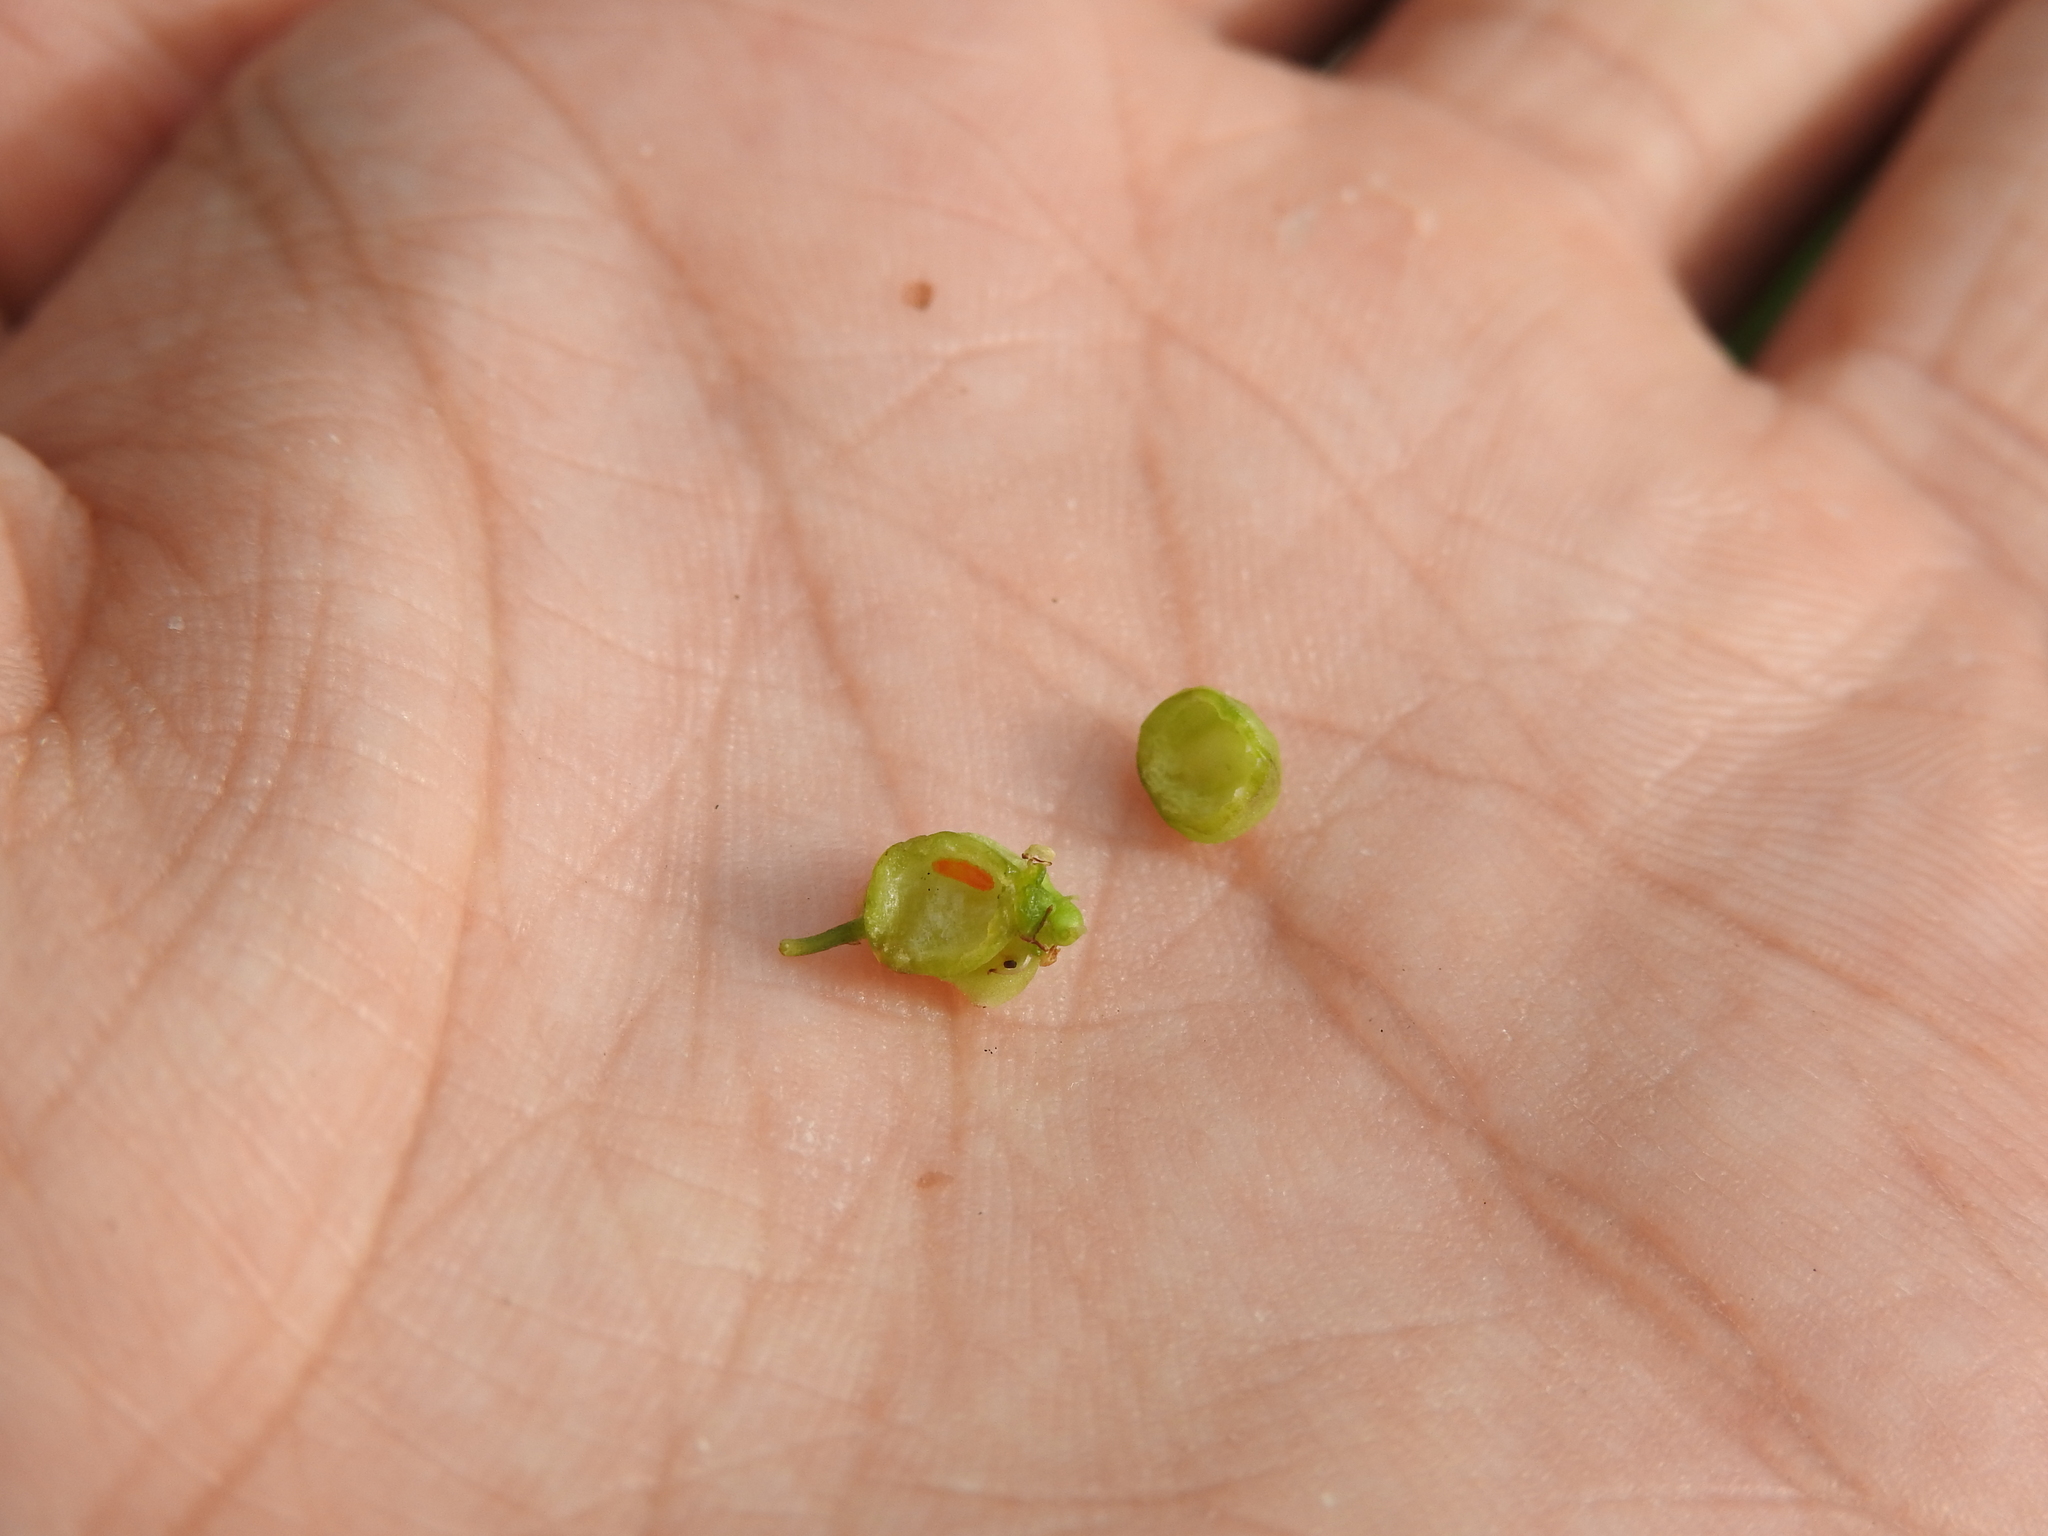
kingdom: Animalia
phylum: Arthropoda
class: Insecta
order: Diptera
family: Cecidomyiidae
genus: Kiefferia
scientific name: Kiefferia pericarpiicola
